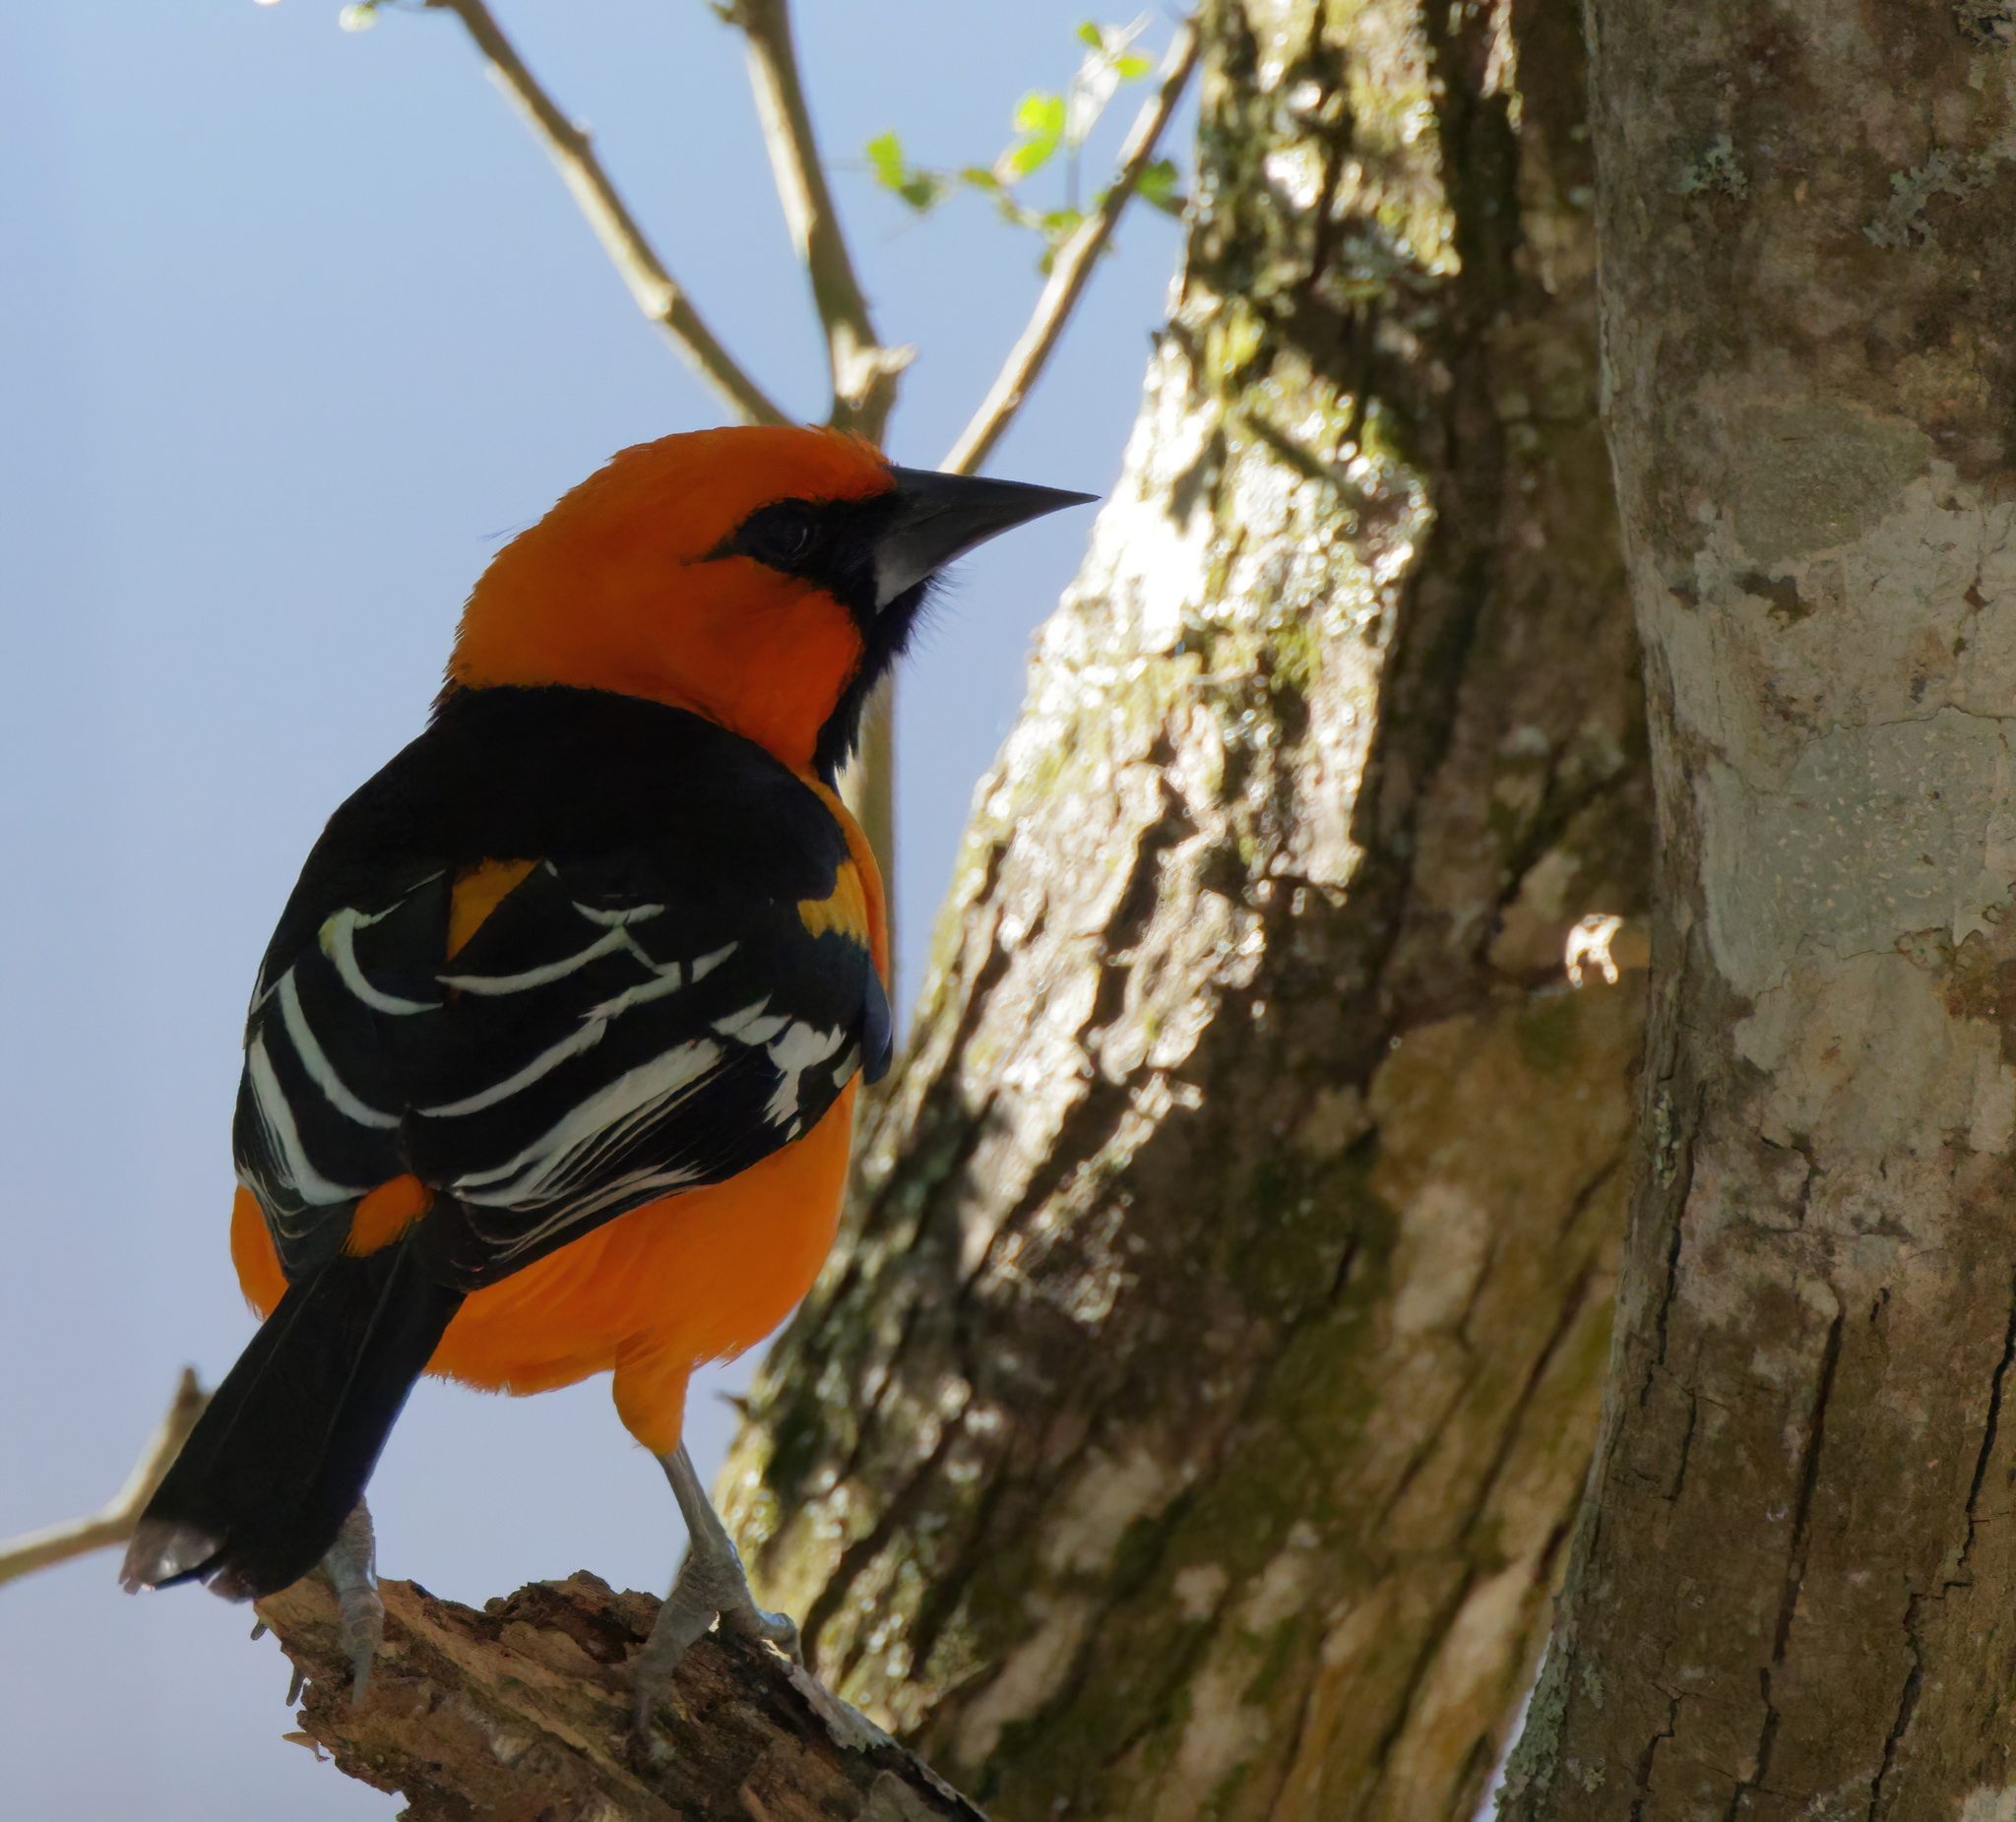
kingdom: Animalia
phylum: Chordata
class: Aves
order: Passeriformes
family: Icteridae
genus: Icterus
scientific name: Icterus gularis
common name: Altamira oriole
